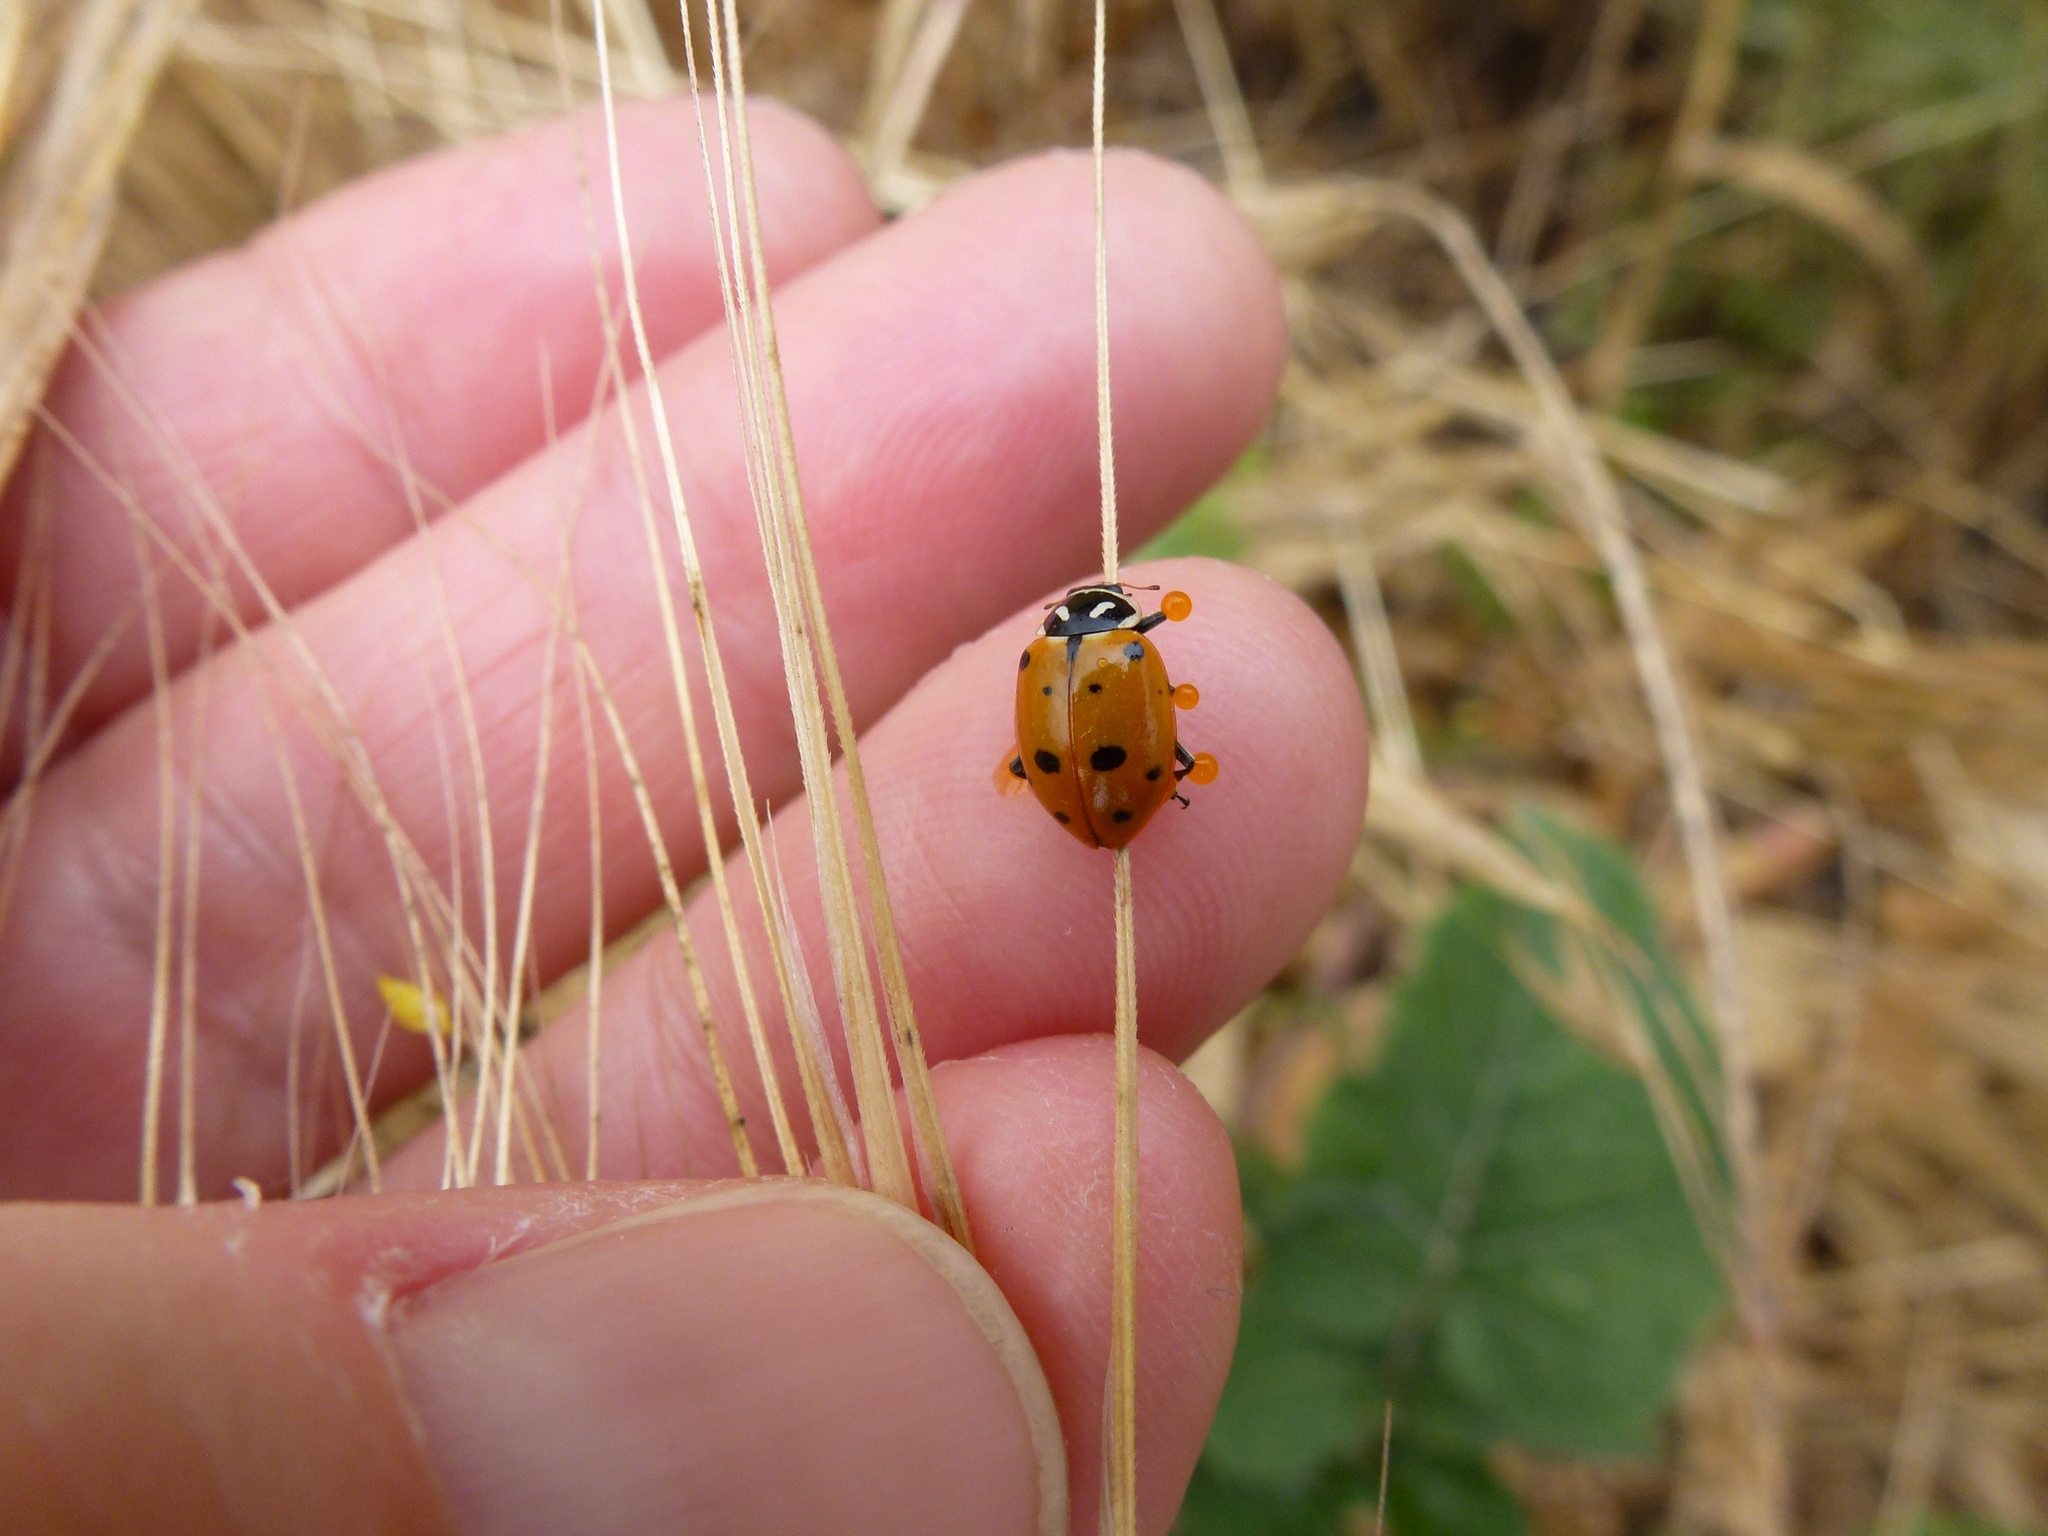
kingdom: Animalia
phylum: Arthropoda
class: Insecta
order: Coleoptera
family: Coccinellidae
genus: Hippodamia
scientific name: Hippodamia convergens
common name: Convergent lady beetle
